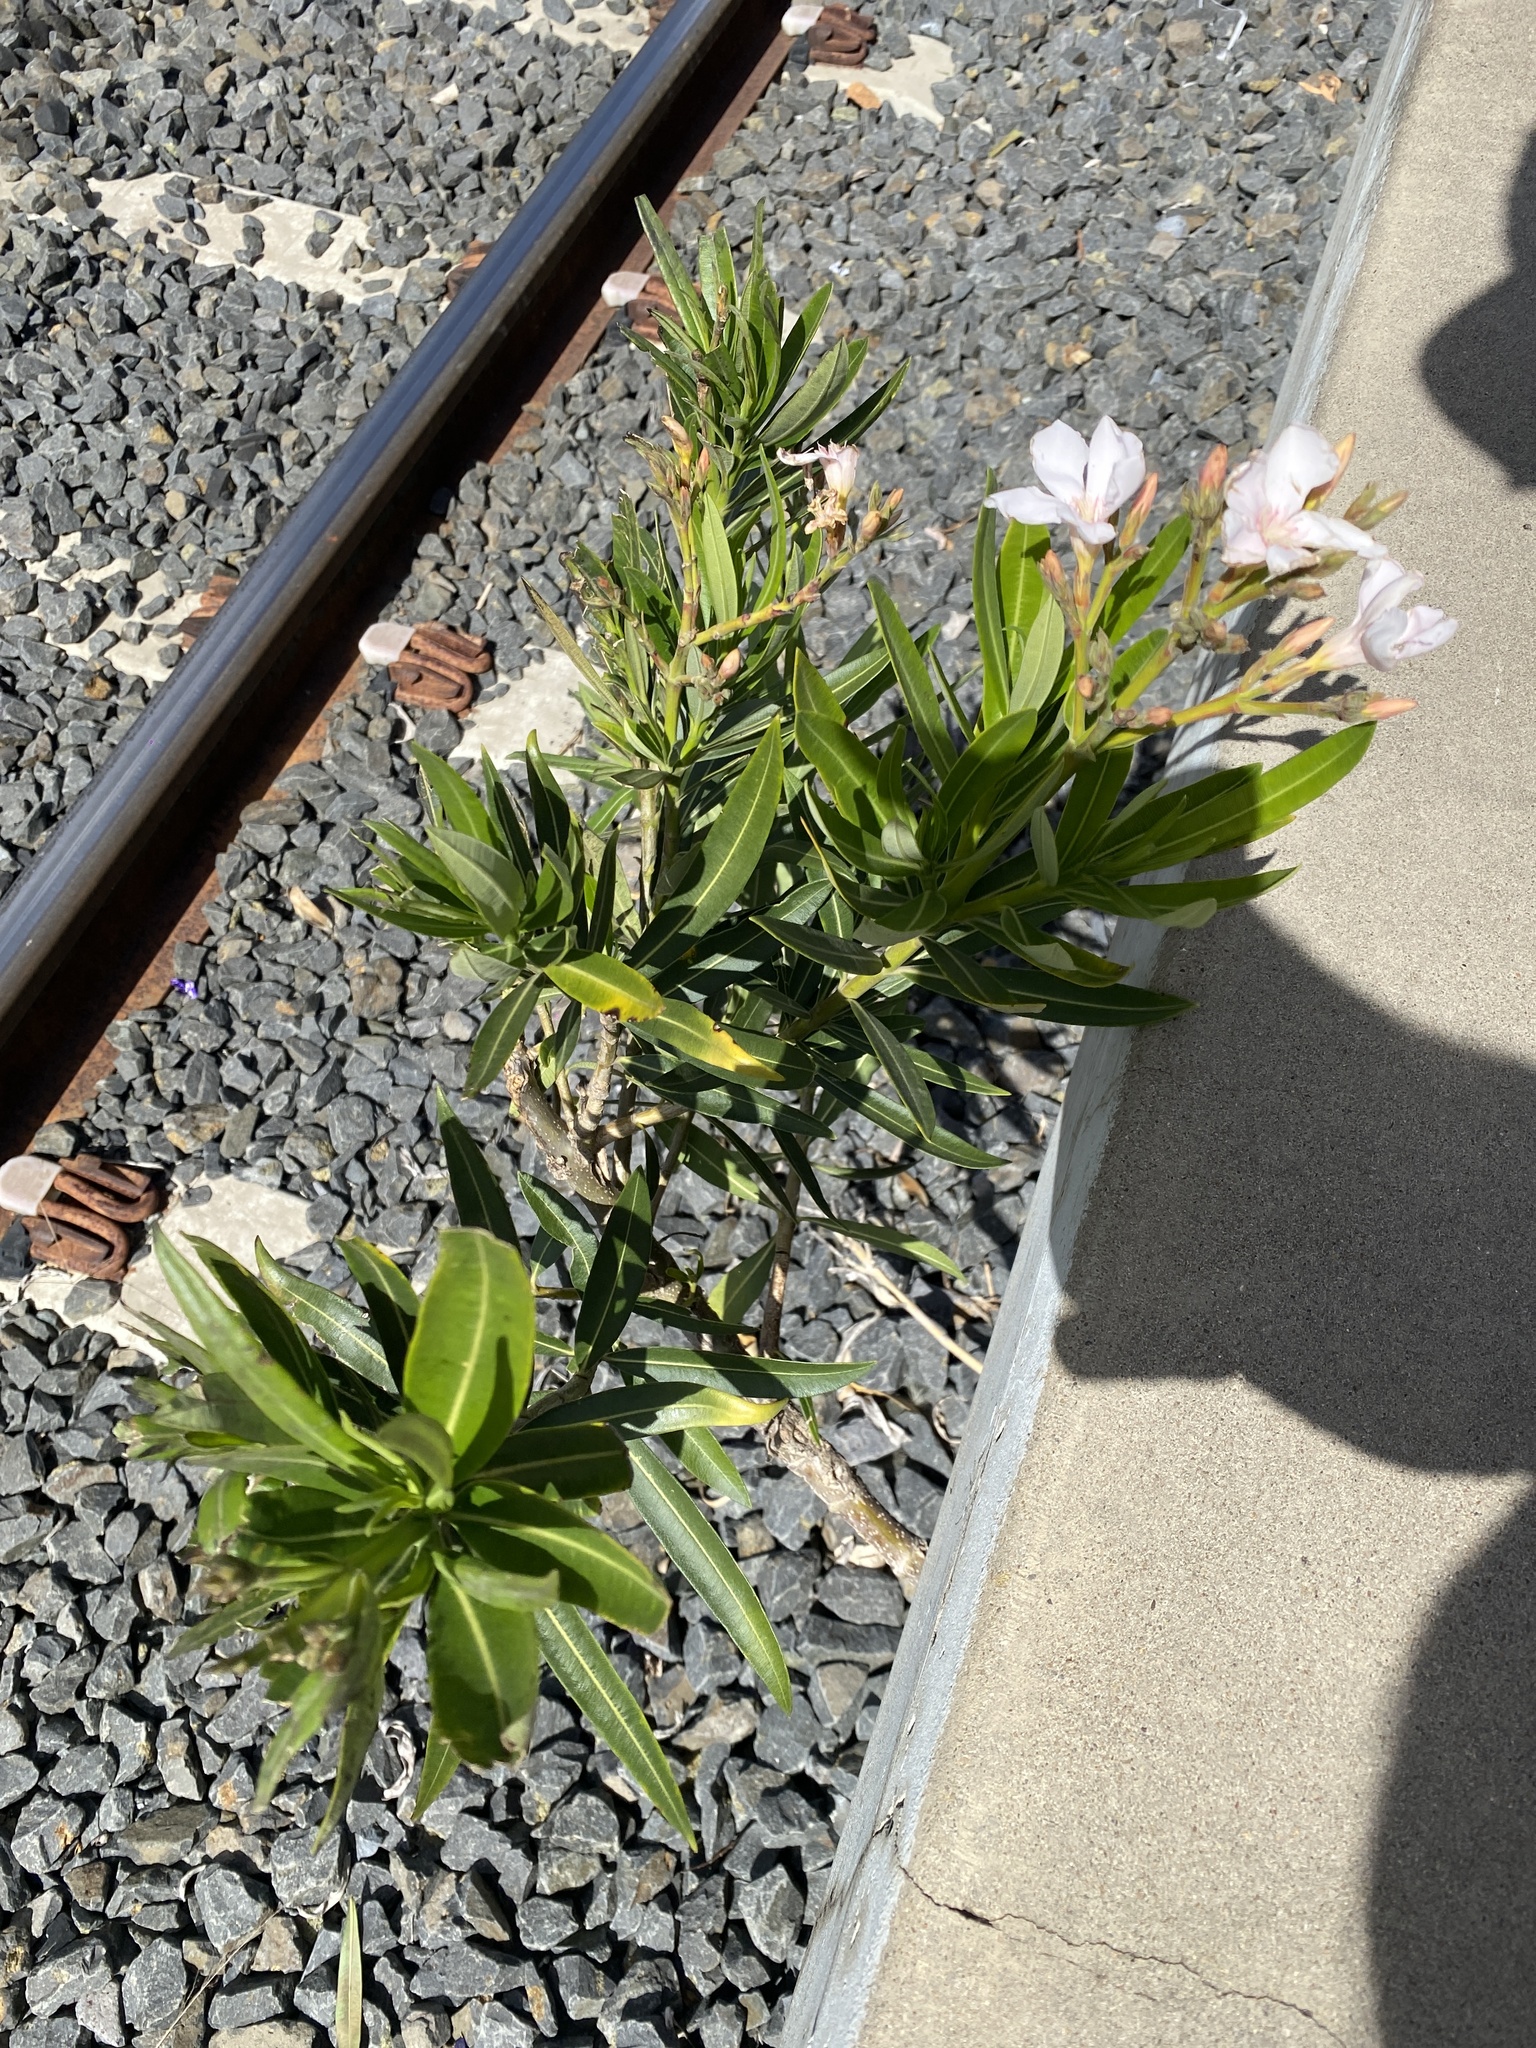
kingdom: Plantae
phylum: Tracheophyta
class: Magnoliopsida
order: Gentianales
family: Apocynaceae
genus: Nerium
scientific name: Nerium oleander
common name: Oleander
